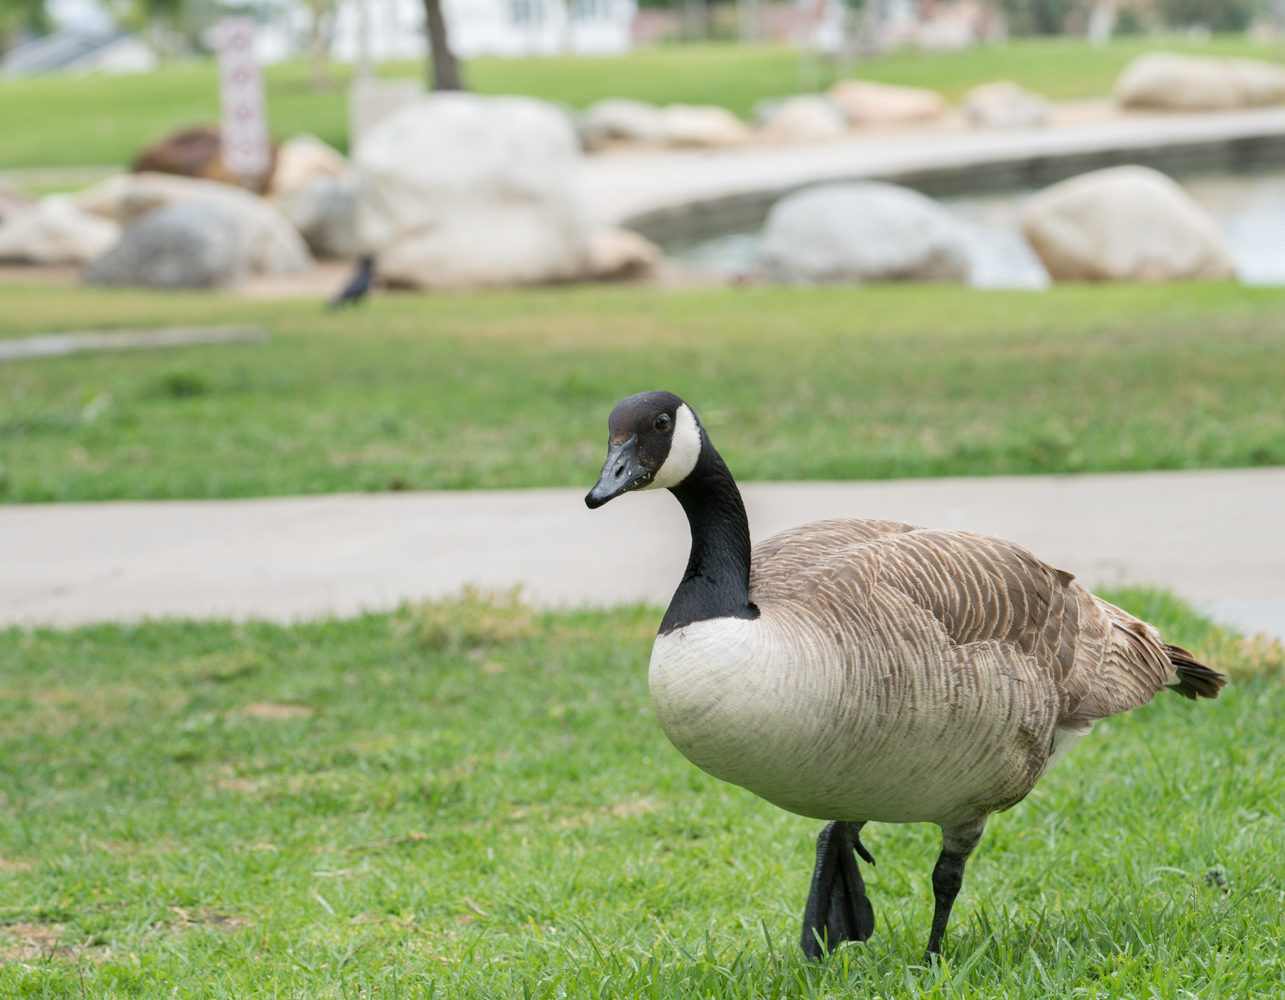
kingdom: Animalia
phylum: Chordata
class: Aves
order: Anseriformes
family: Anatidae
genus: Branta
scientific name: Branta canadensis
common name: Canada goose
